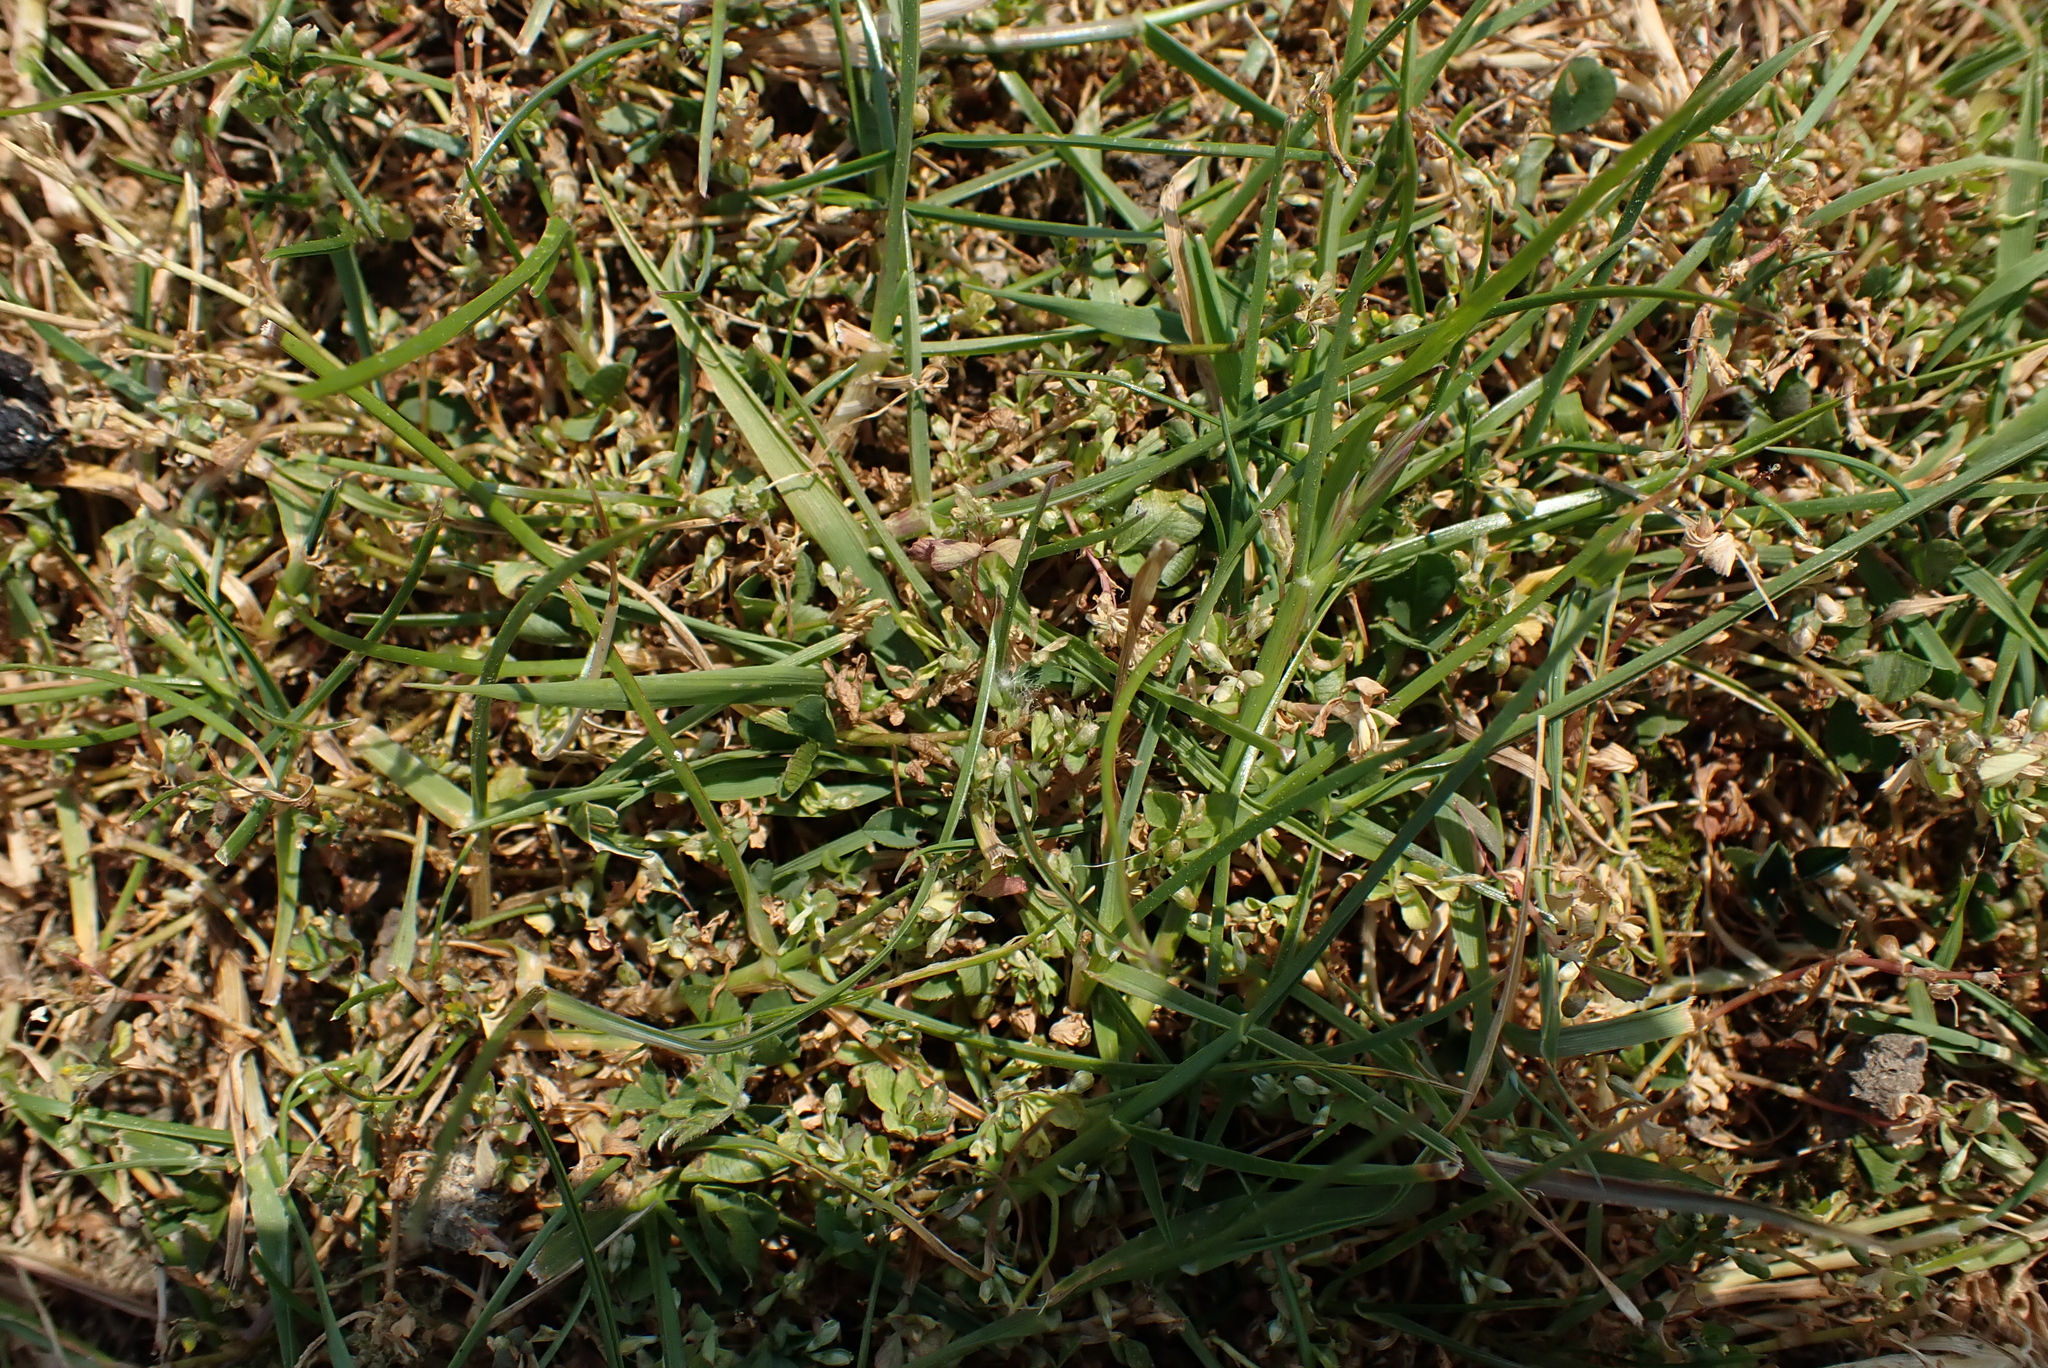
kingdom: Plantae
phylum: Tracheophyta
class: Magnoliopsida
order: Fabales
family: Fabaceae
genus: Trifolium
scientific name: Trifolium micranthum
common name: Slender trefoil
